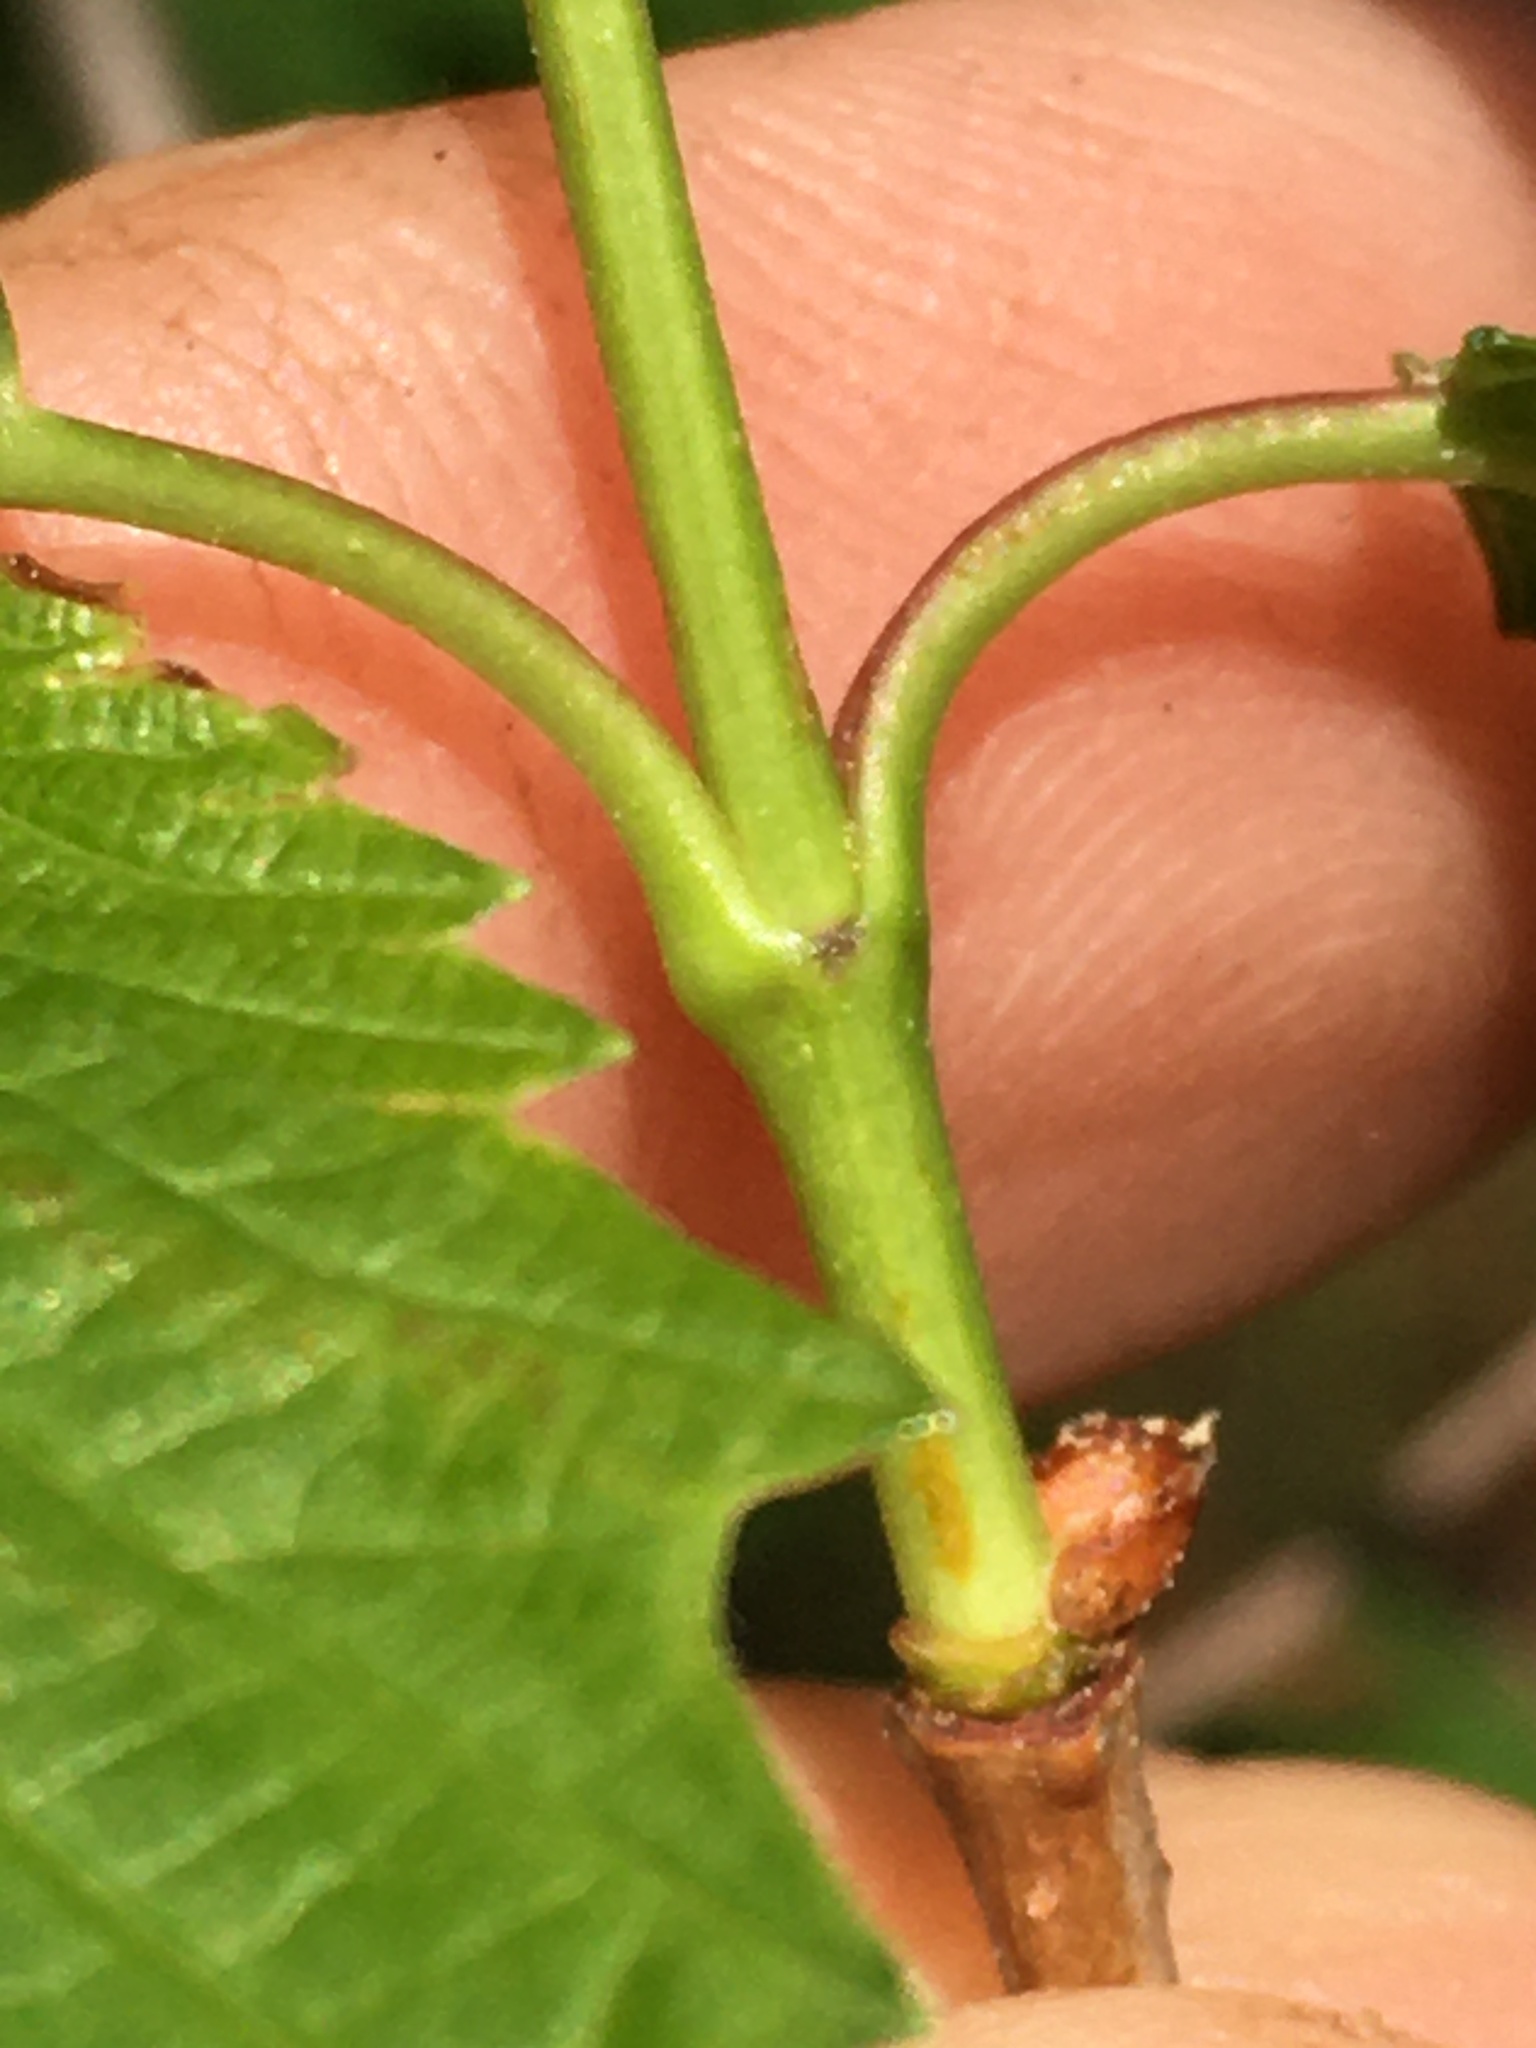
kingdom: Plantae
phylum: Tracheophyta
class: Magnoliopsida
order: Dipsacales
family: Viburnaceae
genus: Viburnum
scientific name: Viburnum recognitum
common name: Northern arrow-wood
